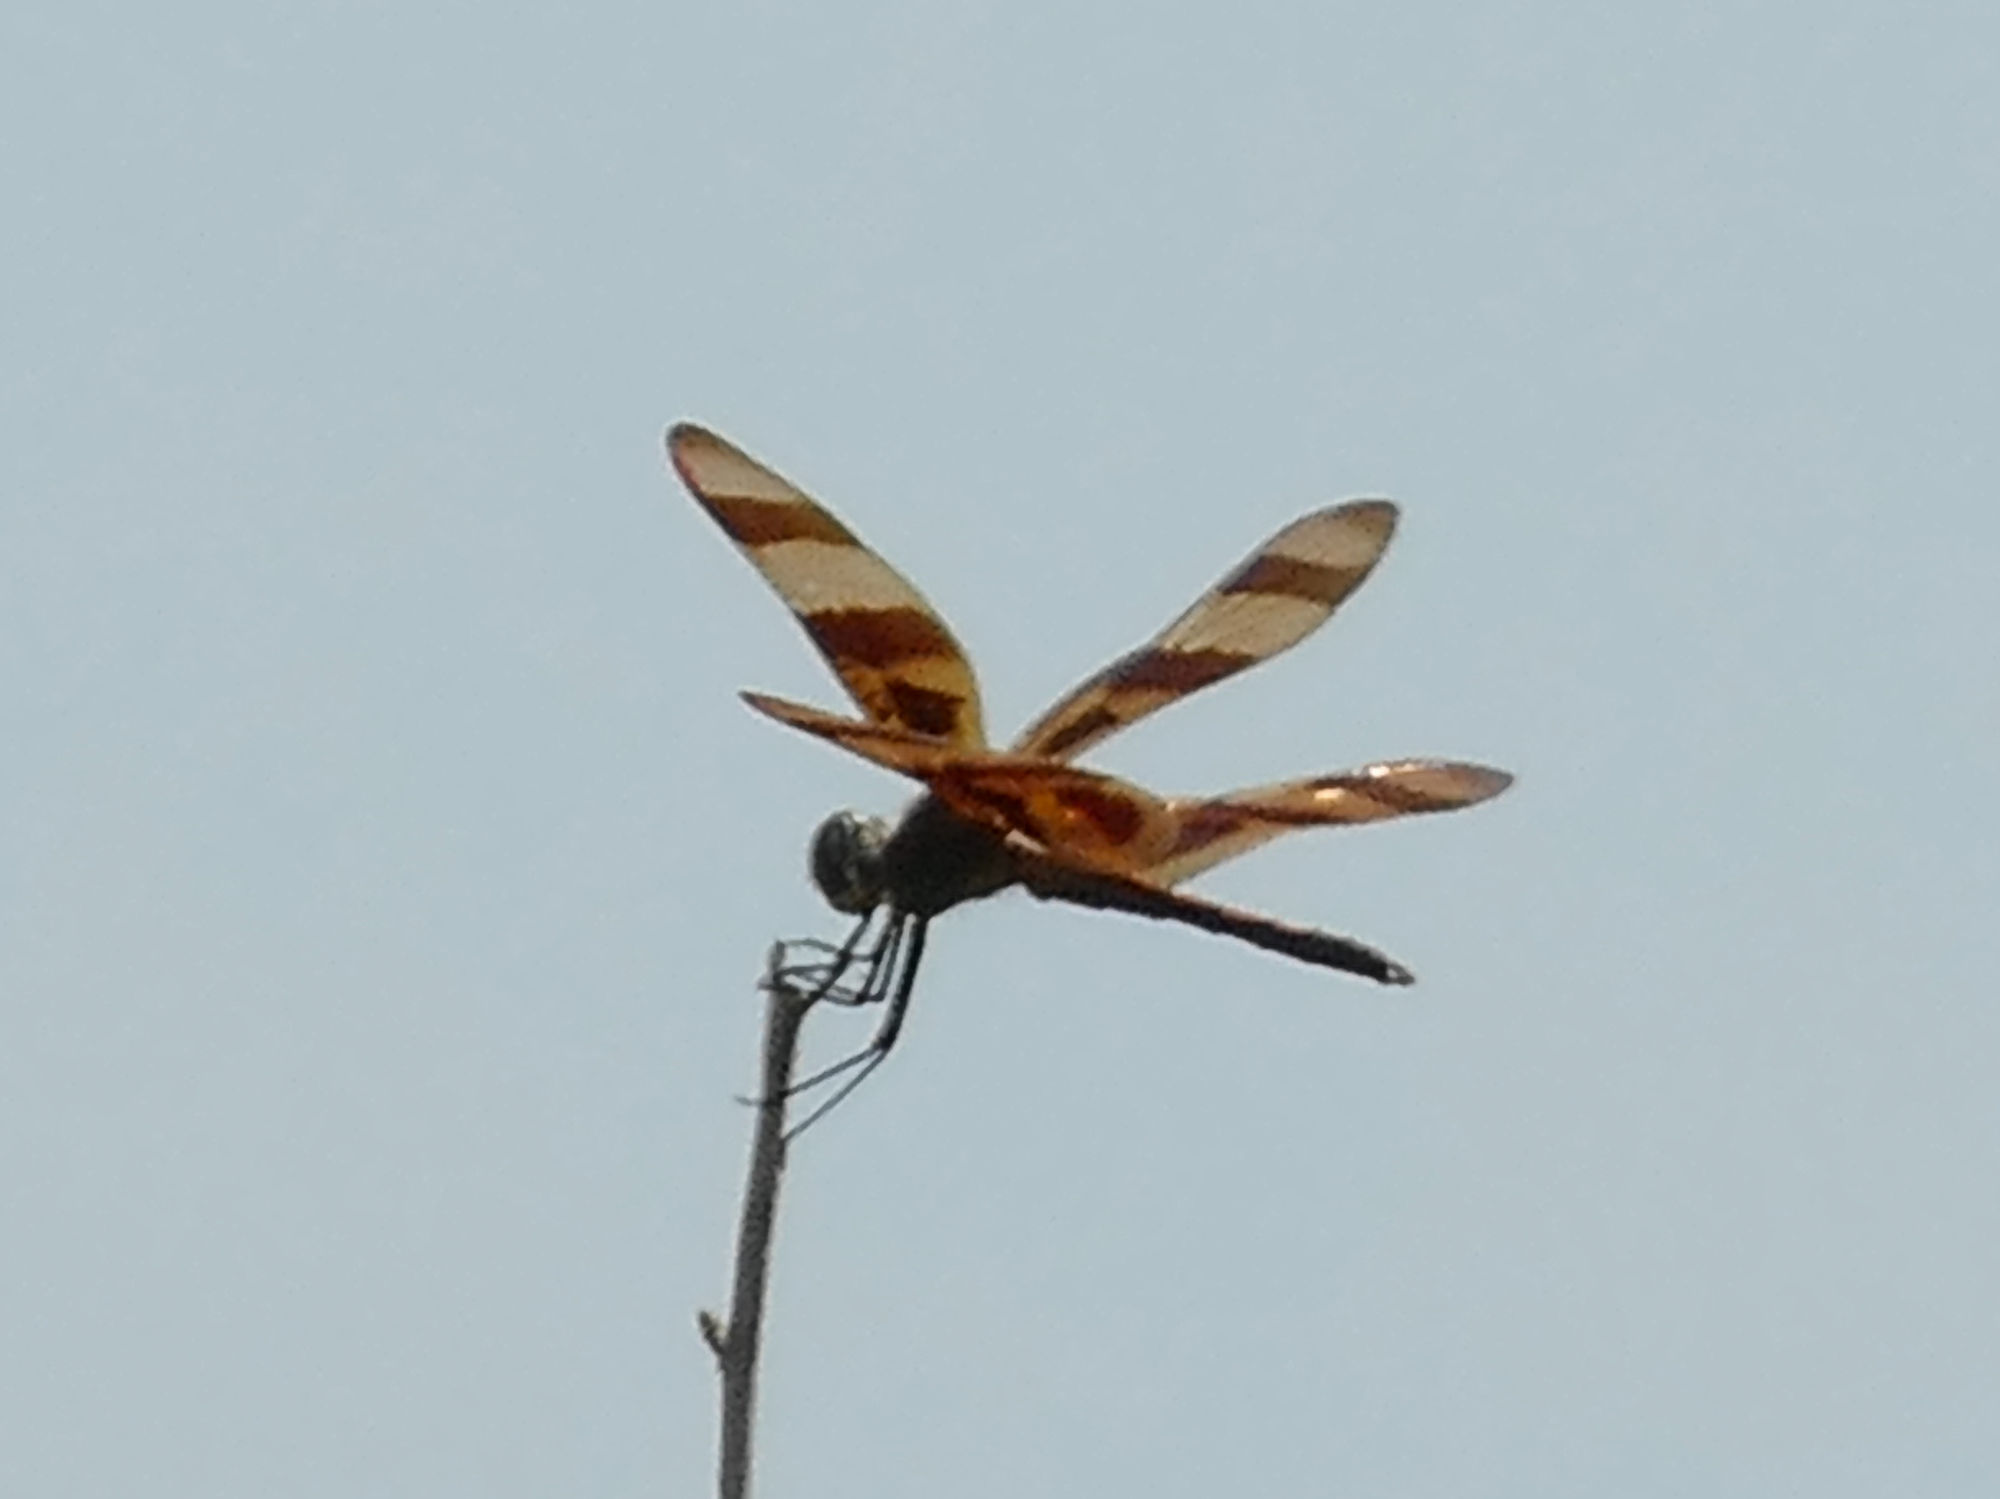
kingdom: Animalia
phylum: Arthropoda
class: Insecta
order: Odonata
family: Libellulidae
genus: Celithemis
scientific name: Celithemis eponina
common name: Halloween pennant
